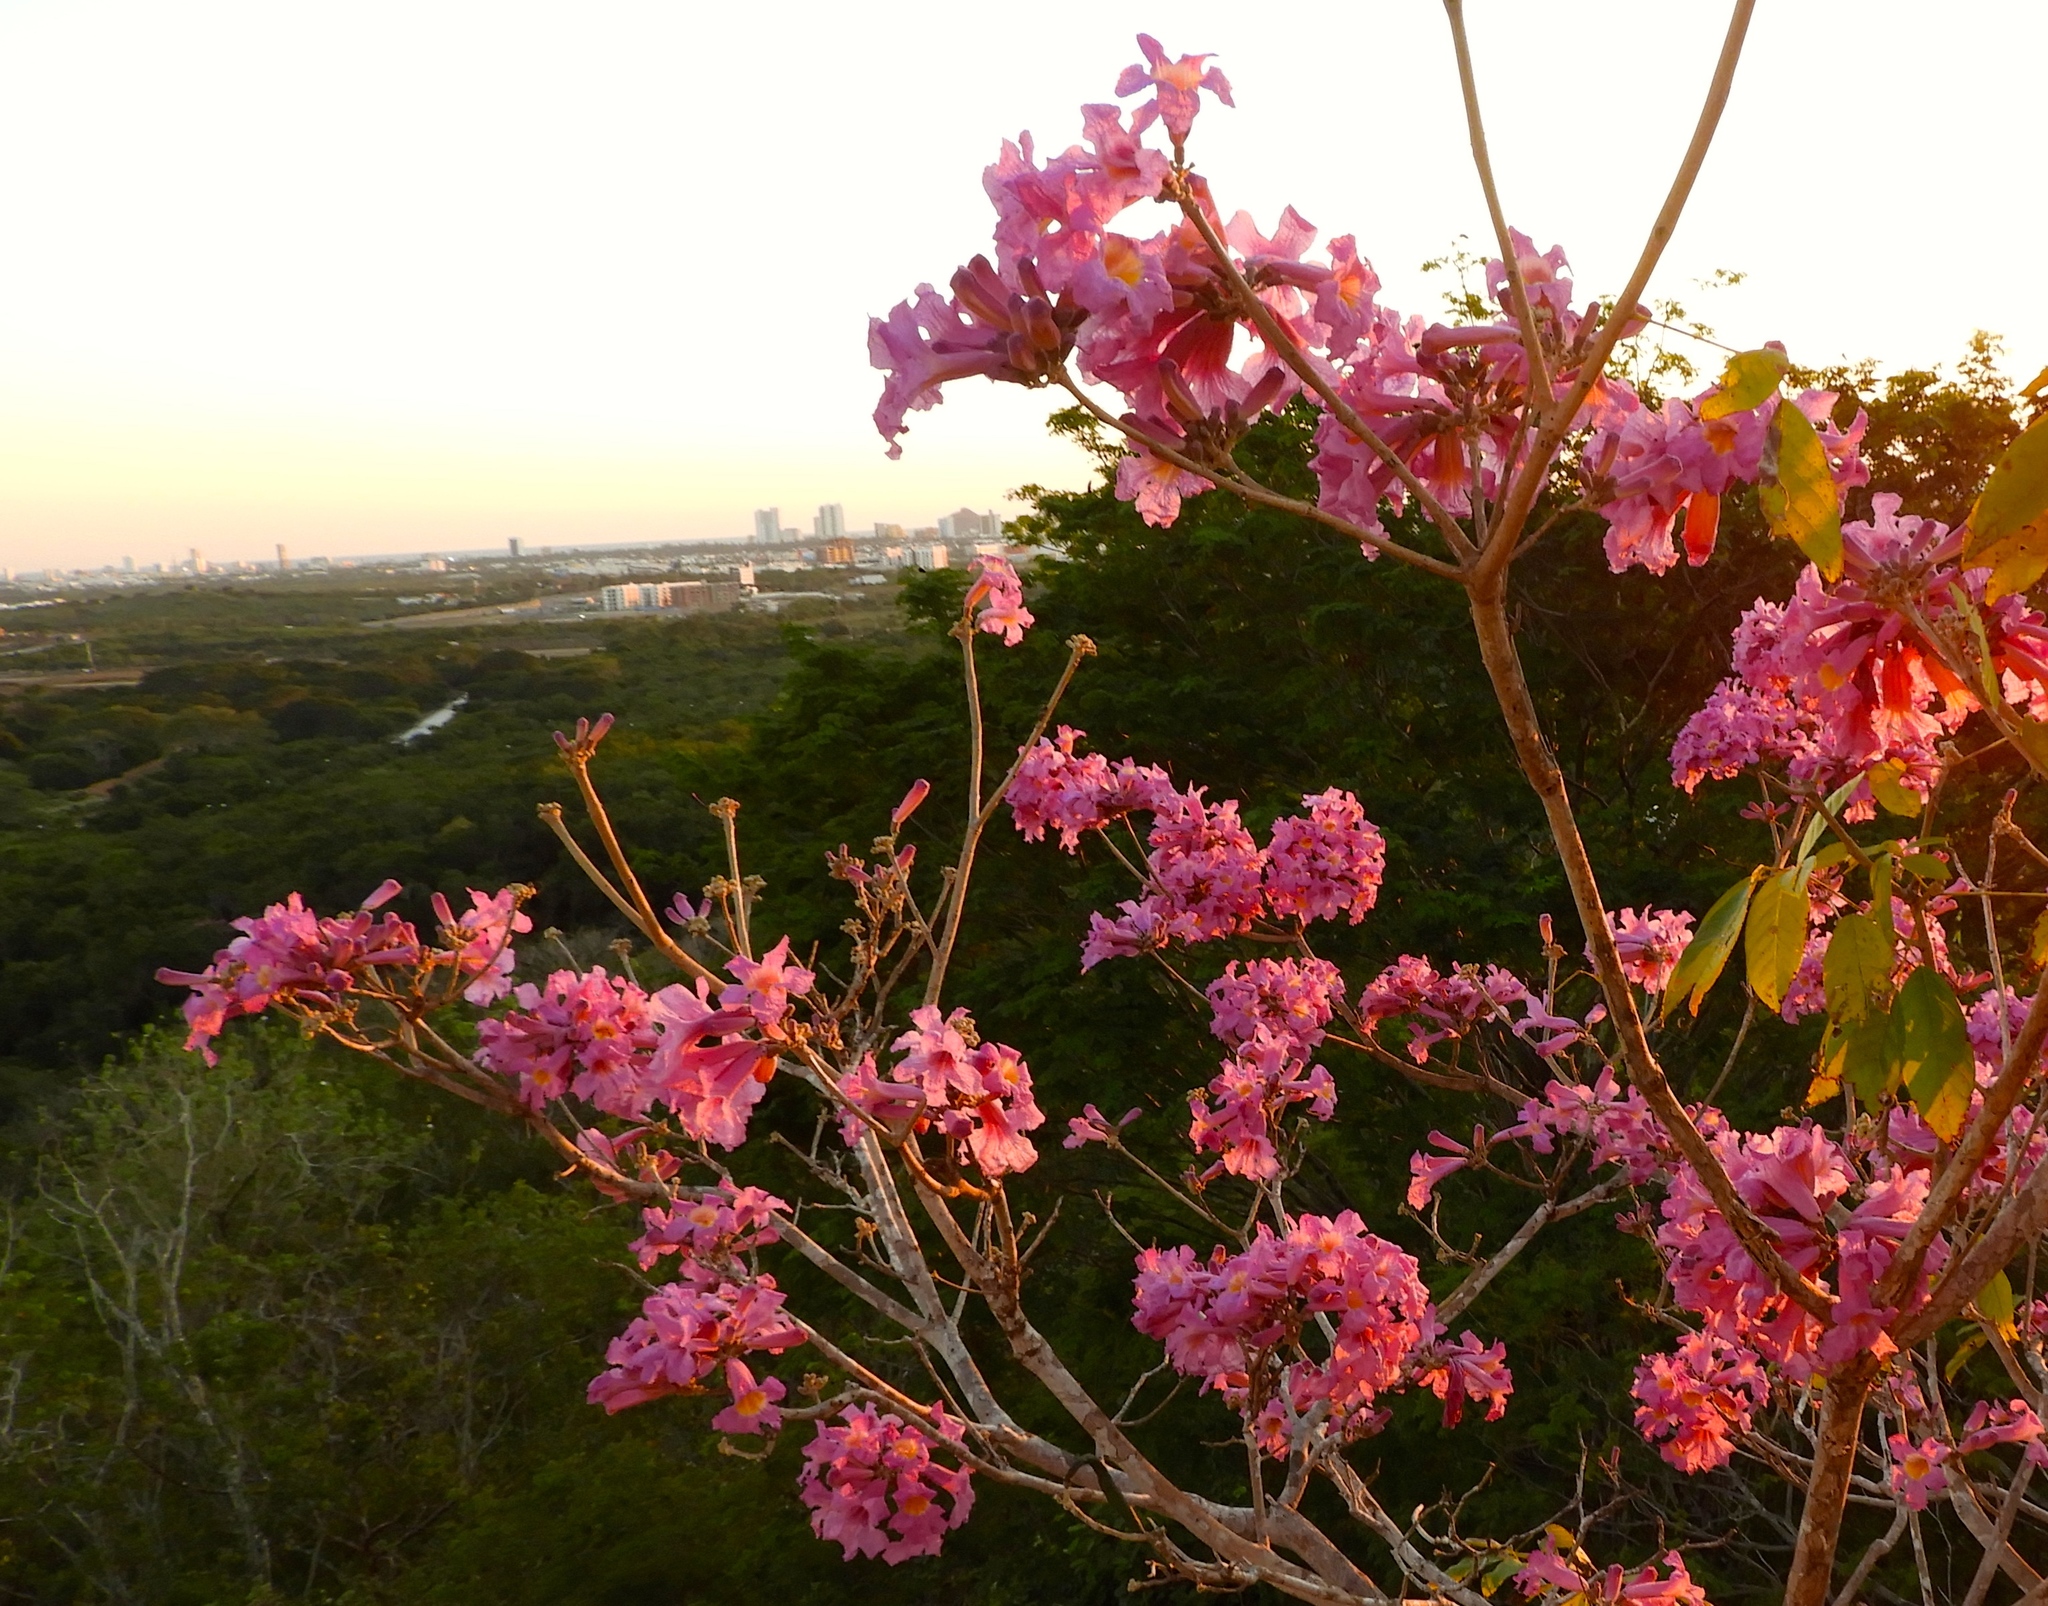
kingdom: Plantae
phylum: Tracheophyta
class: Magnoliopsida
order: Lamiales
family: Bignoniaceae
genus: Handroanthus
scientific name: Handroanthus impetiginosum
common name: Pink trumpet tree
